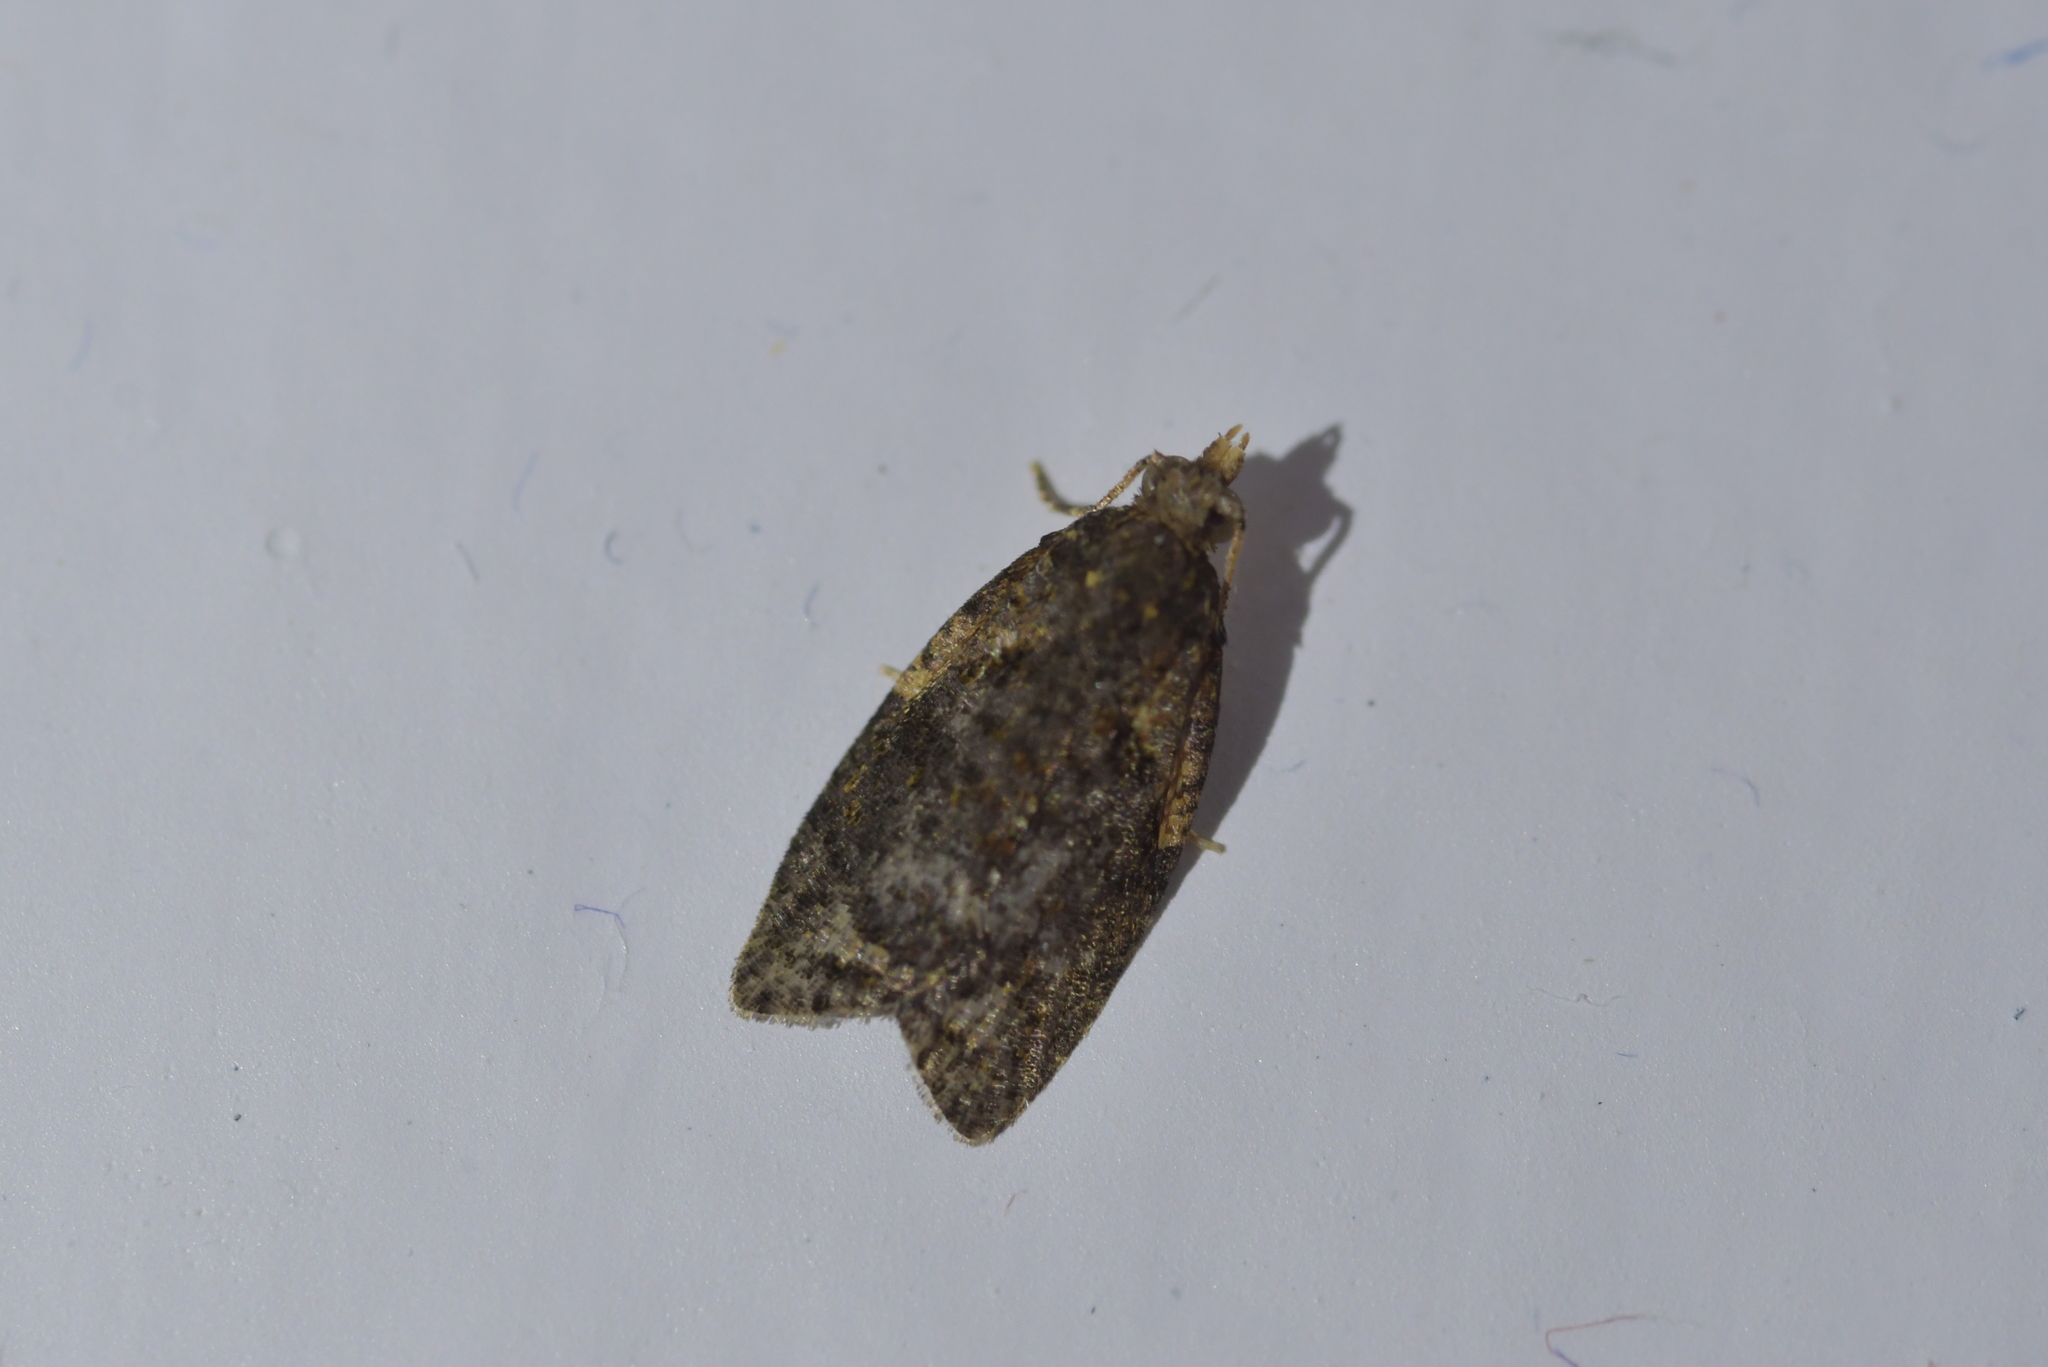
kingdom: Animalia
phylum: Arthropoda
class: Insecta
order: Lepidoptera
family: Tortricidae
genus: Capua
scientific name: Capua intractana
